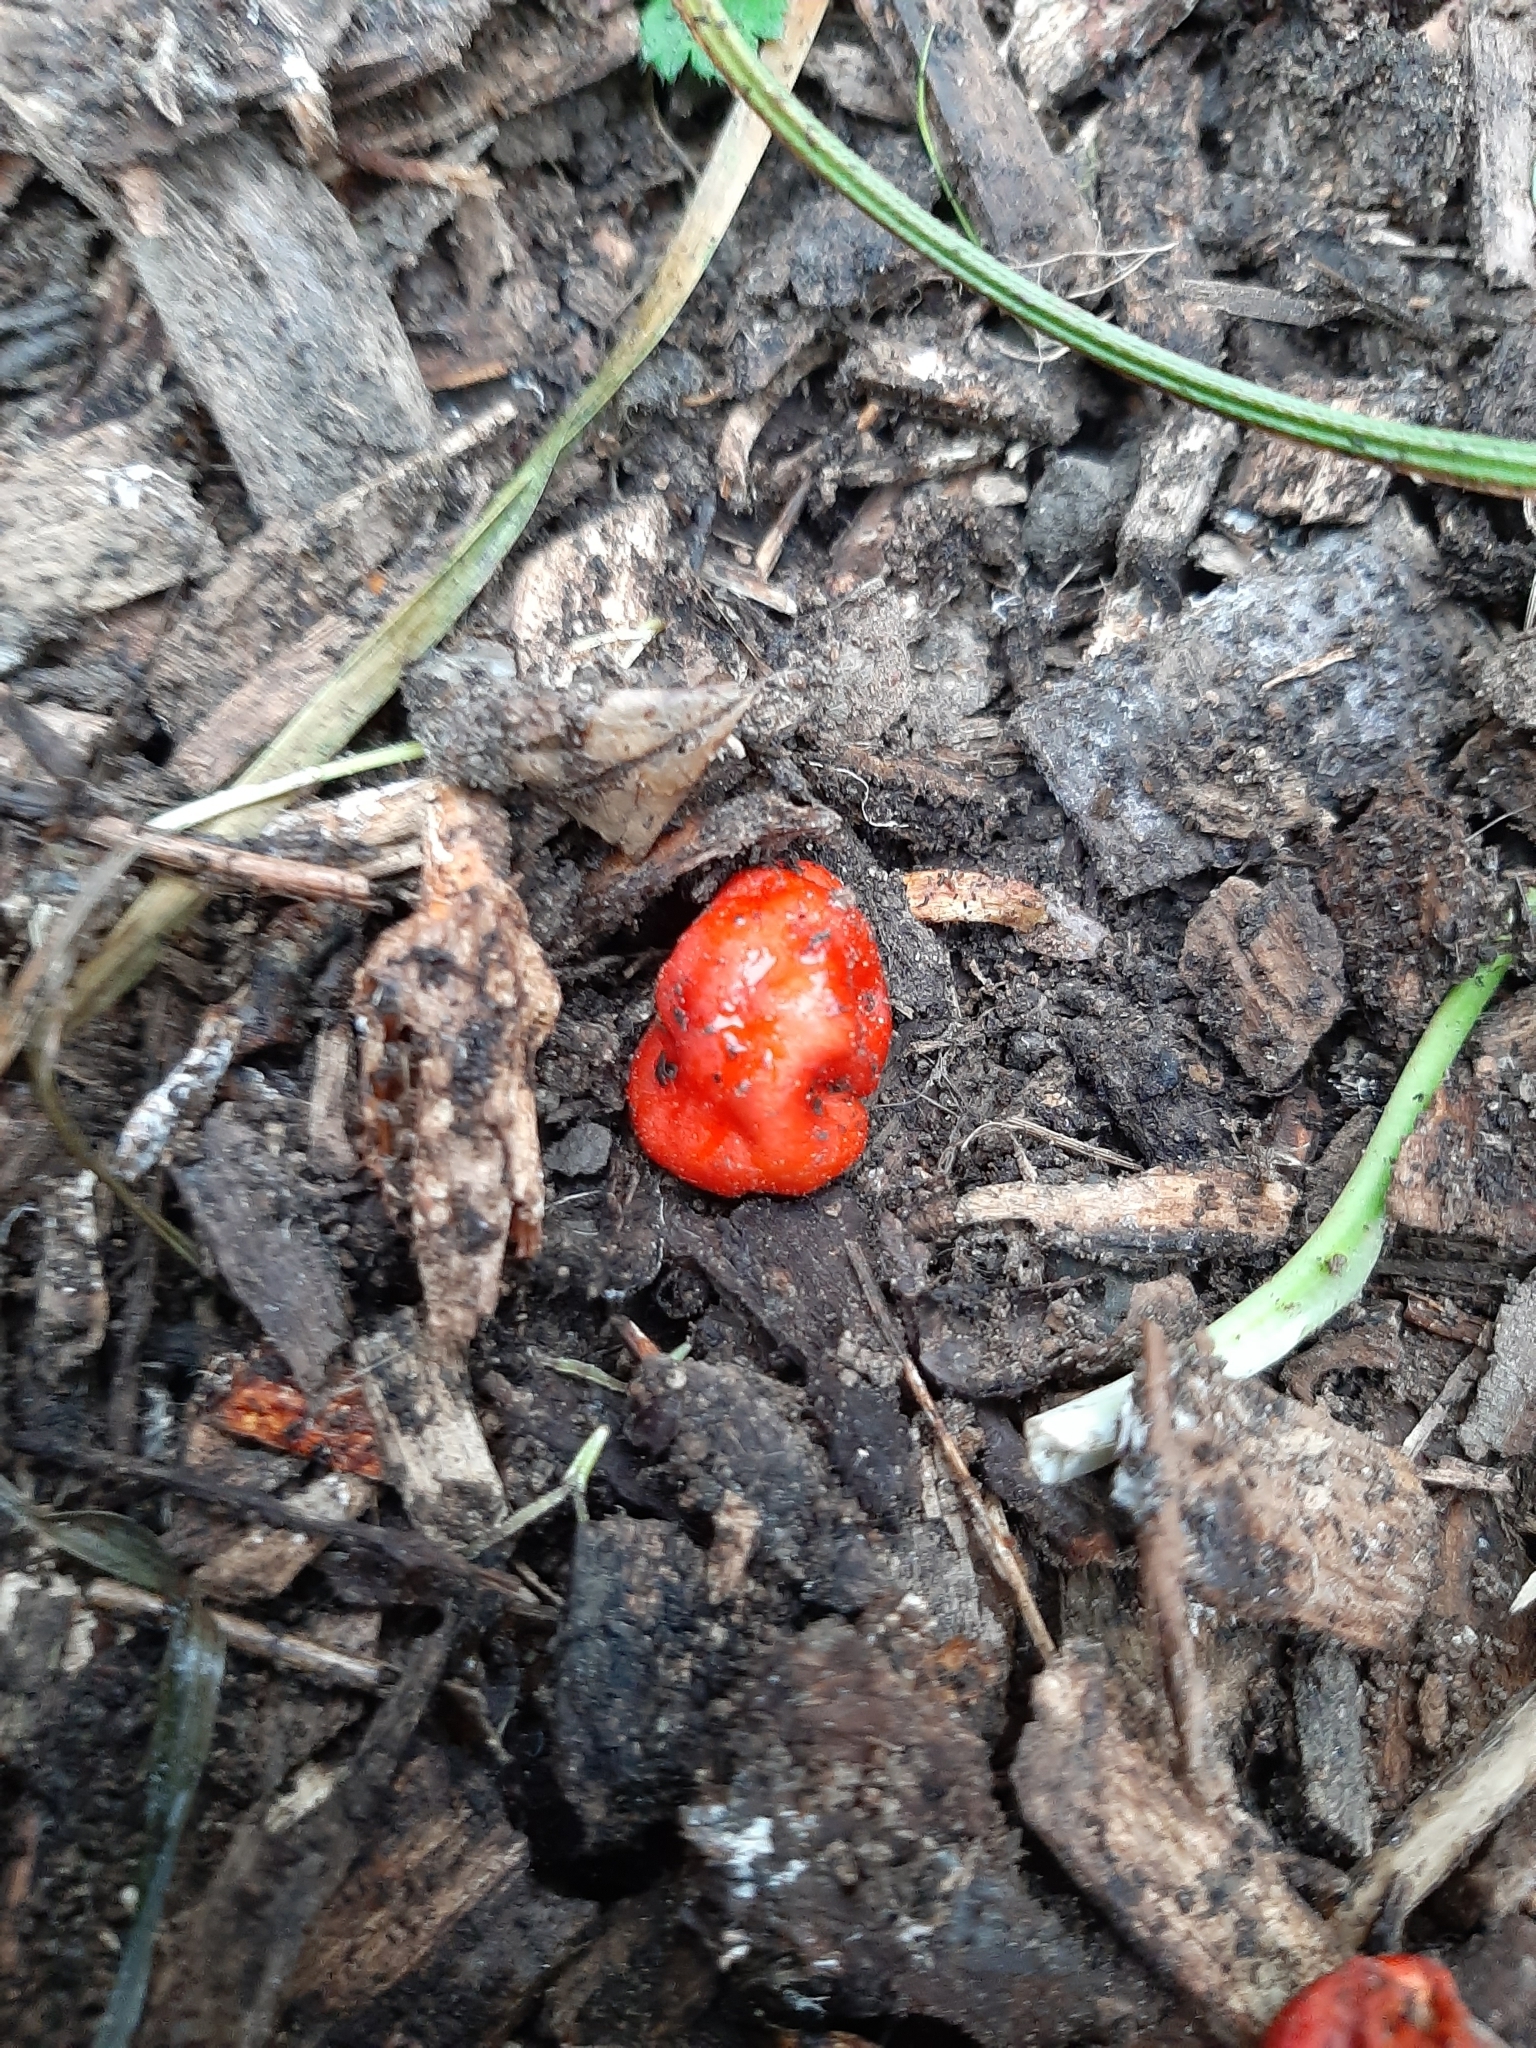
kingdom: Fungi
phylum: Basidiomycota
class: Agaricomycetes
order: Agaricales
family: Strophariaceae
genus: Leratiomyces
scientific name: Leratiomyces erythrocephalus
